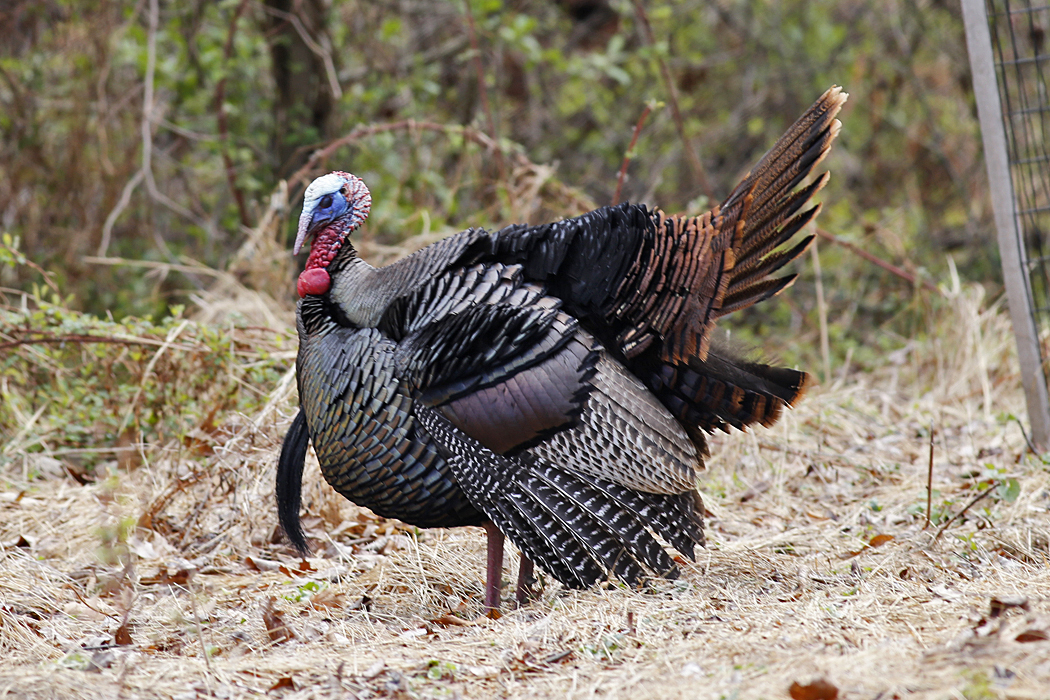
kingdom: Animalia
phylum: Chordata
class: Aves
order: Galliformes
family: Phasianidae
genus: Meleagris
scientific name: Meleagris gallopavo
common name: Wild turkey
